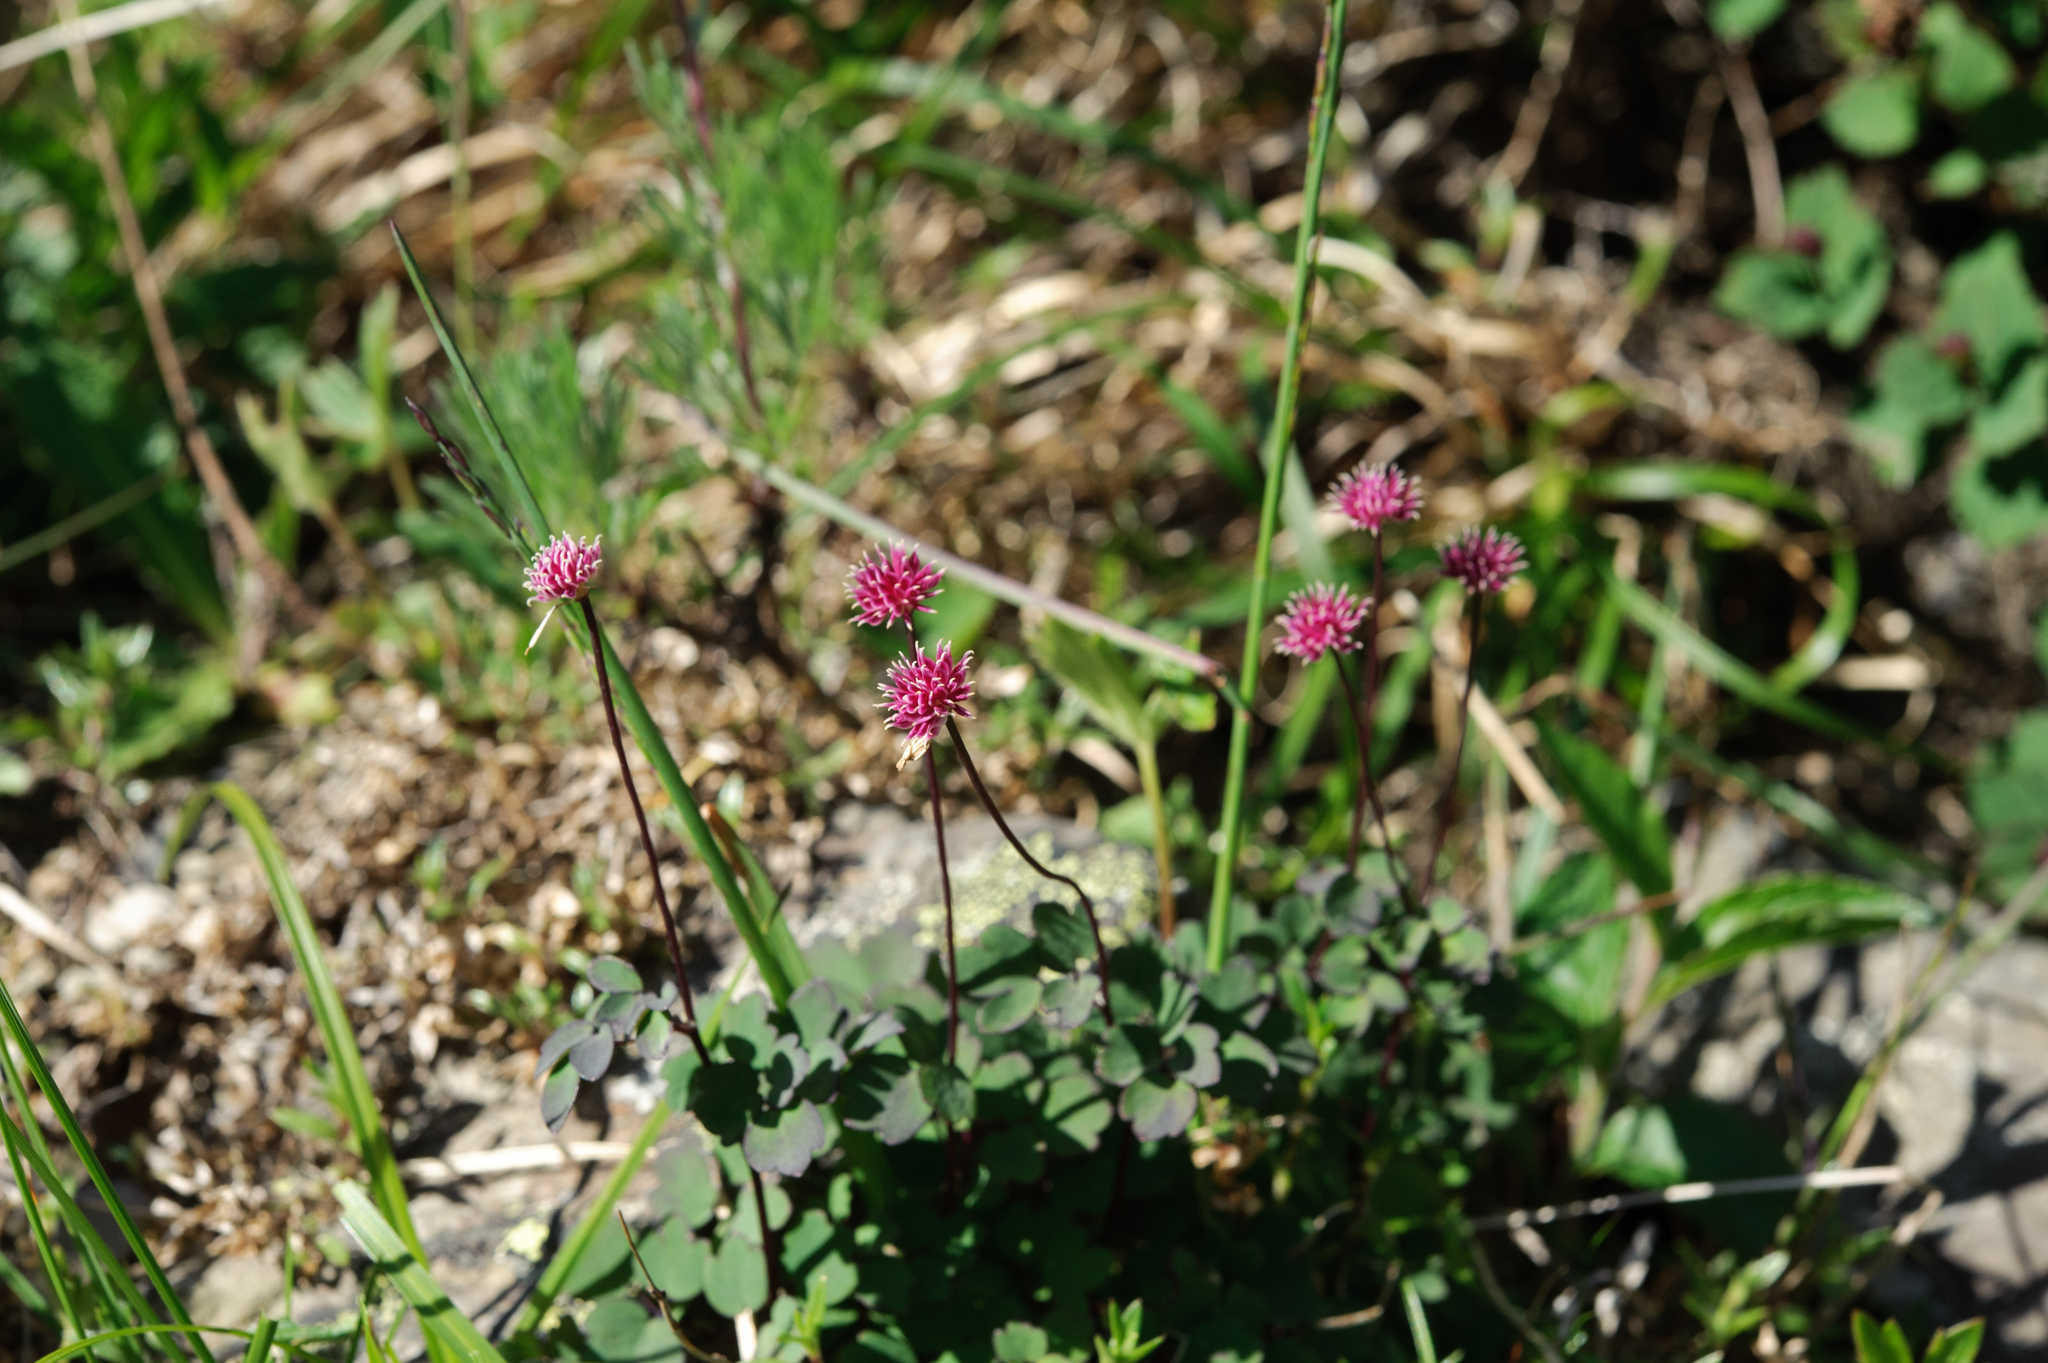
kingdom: Plantae
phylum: Tracheophyta
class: Magnoliopsida
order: Ranunculales
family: Ranunculaceae
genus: Thalictrum
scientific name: Thalictrum rubescens
